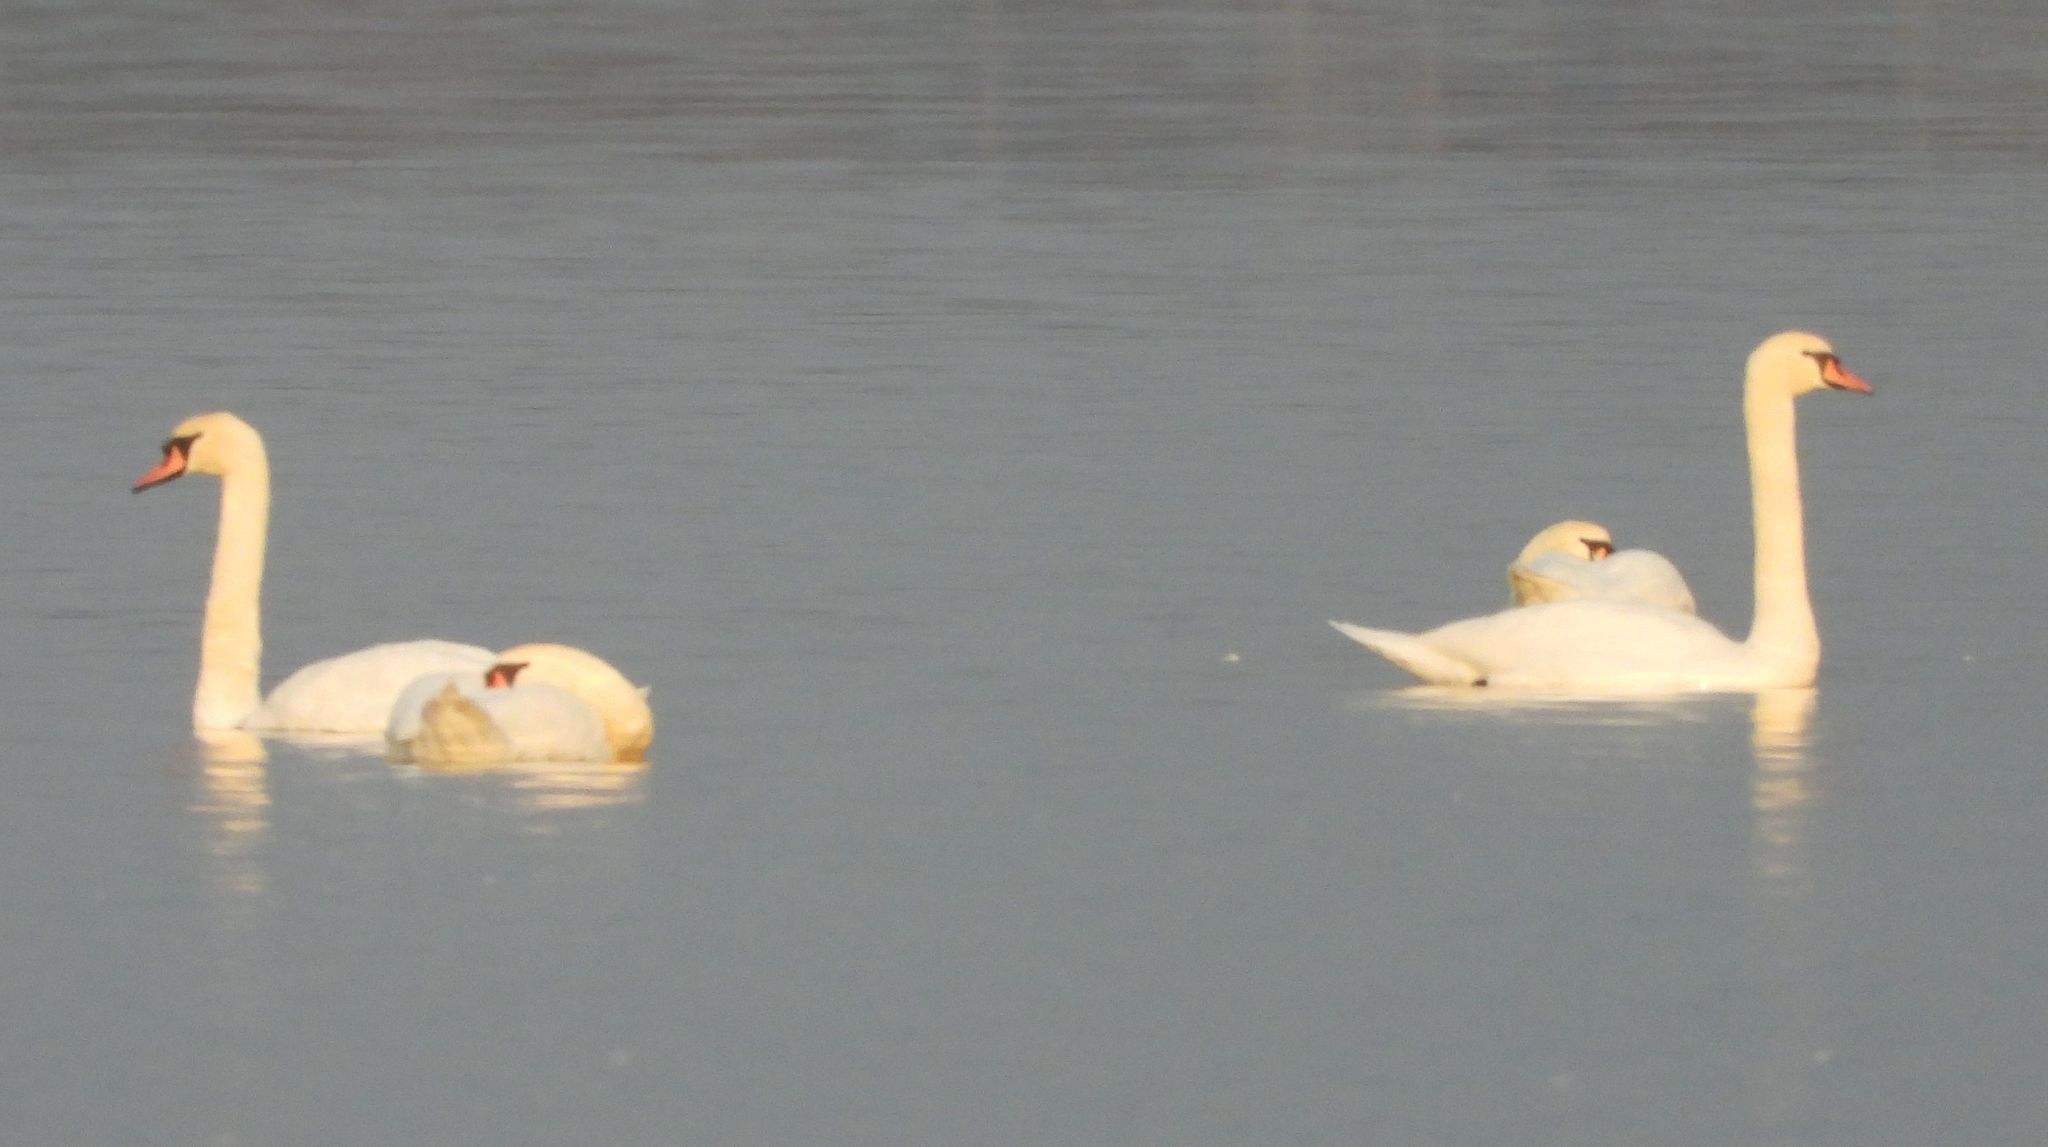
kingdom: Animalia
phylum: Chordata
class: Aves
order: Anseriformes
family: Anatidae
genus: Cygnus
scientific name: Cygnus olor
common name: Mute swan
